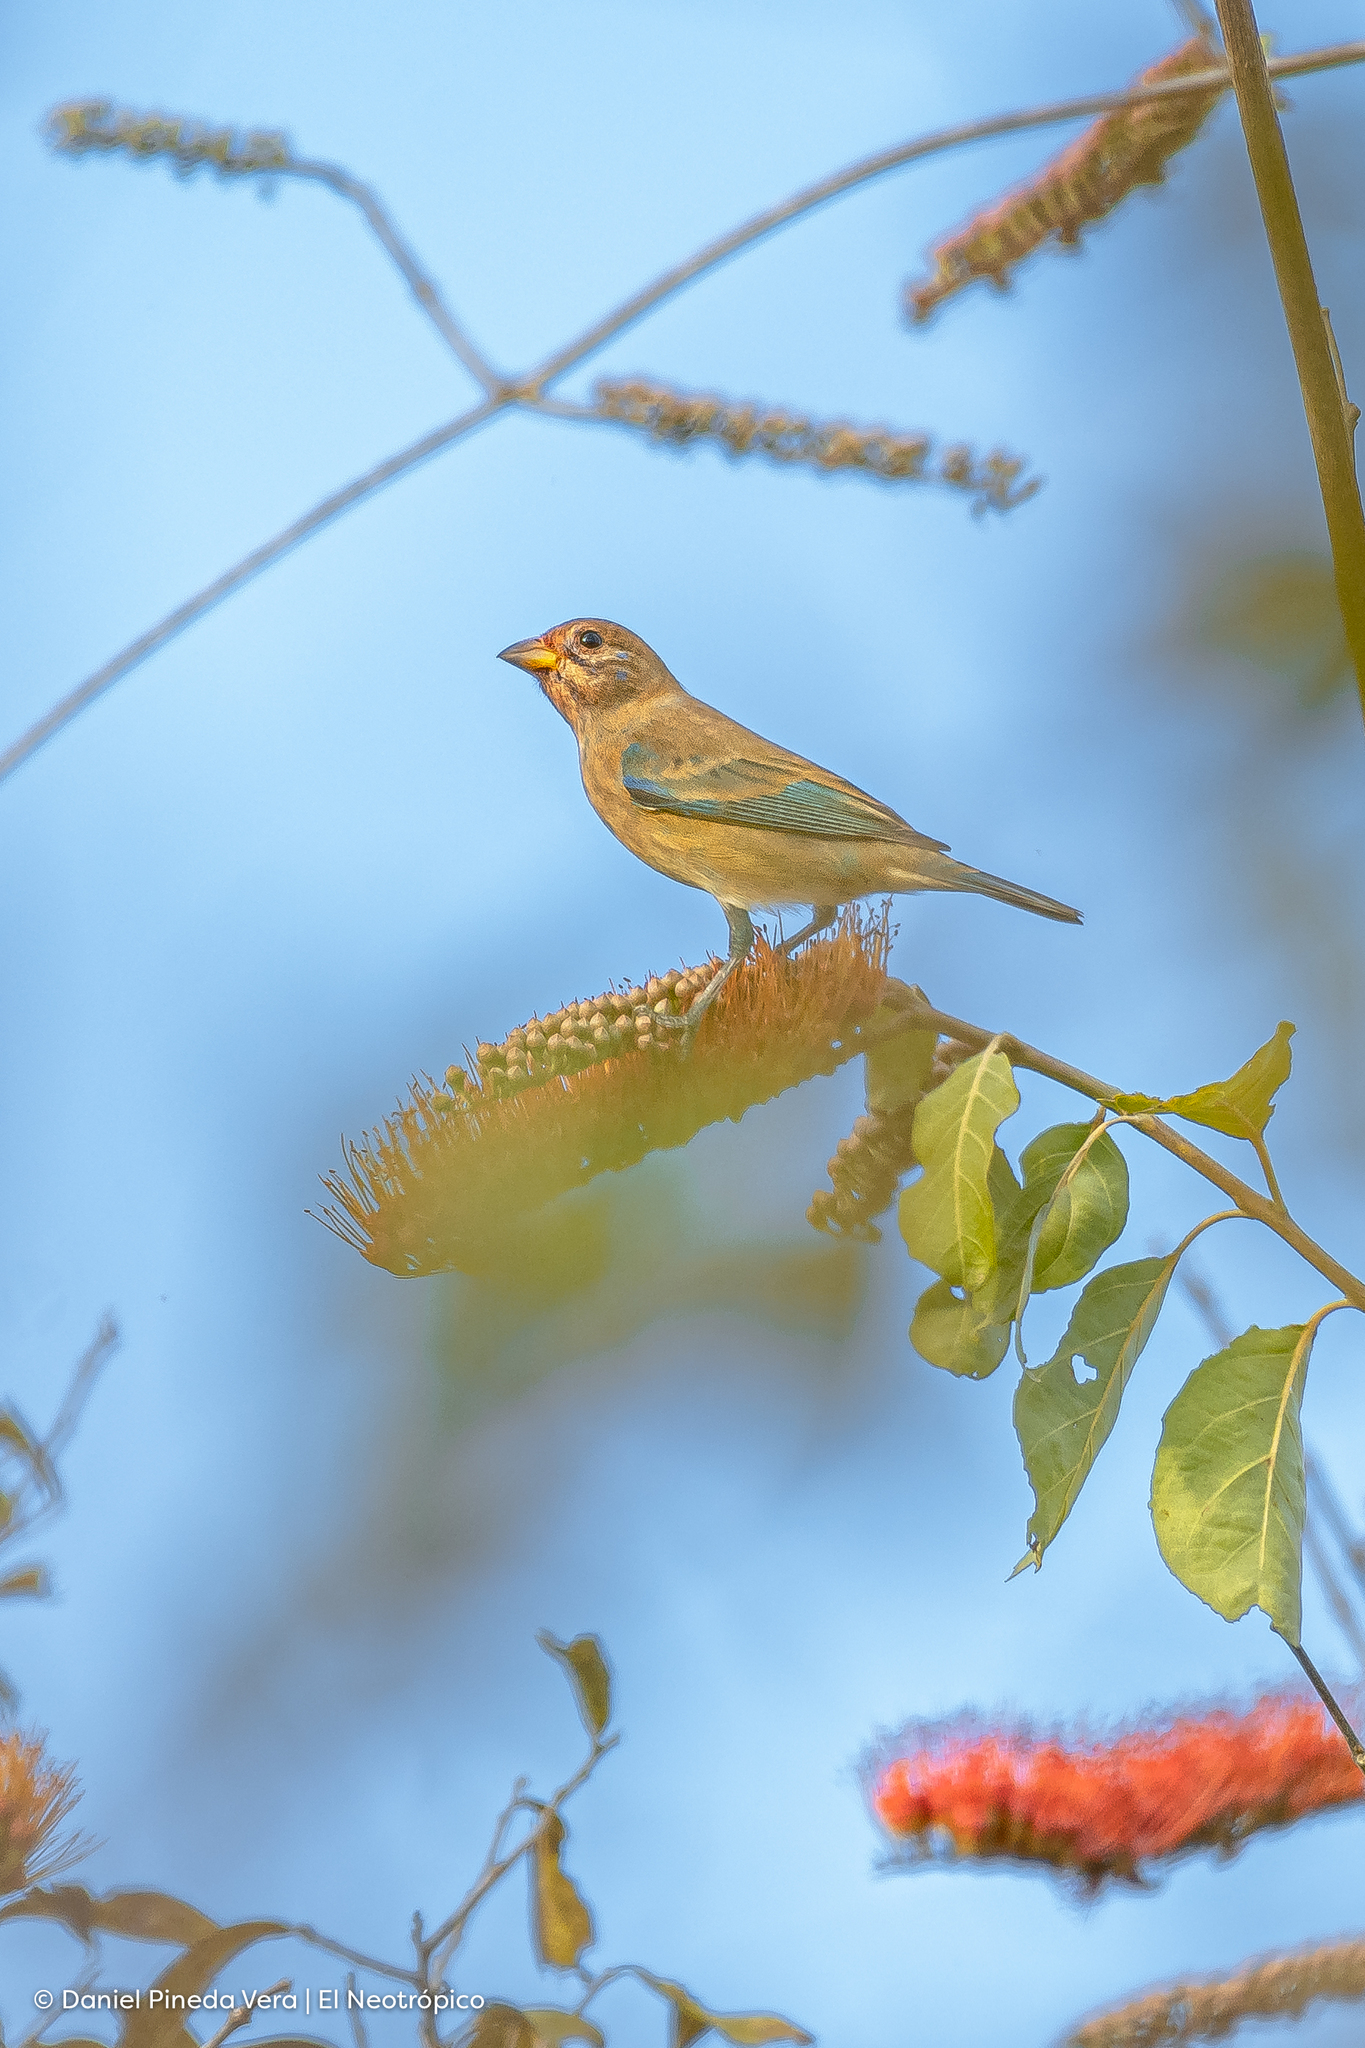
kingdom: Animalia
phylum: Chordata
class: Aves
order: Passeriformes
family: Cardinalidae
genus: Passerina
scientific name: Passerina cyanea
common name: Indigo bunting
